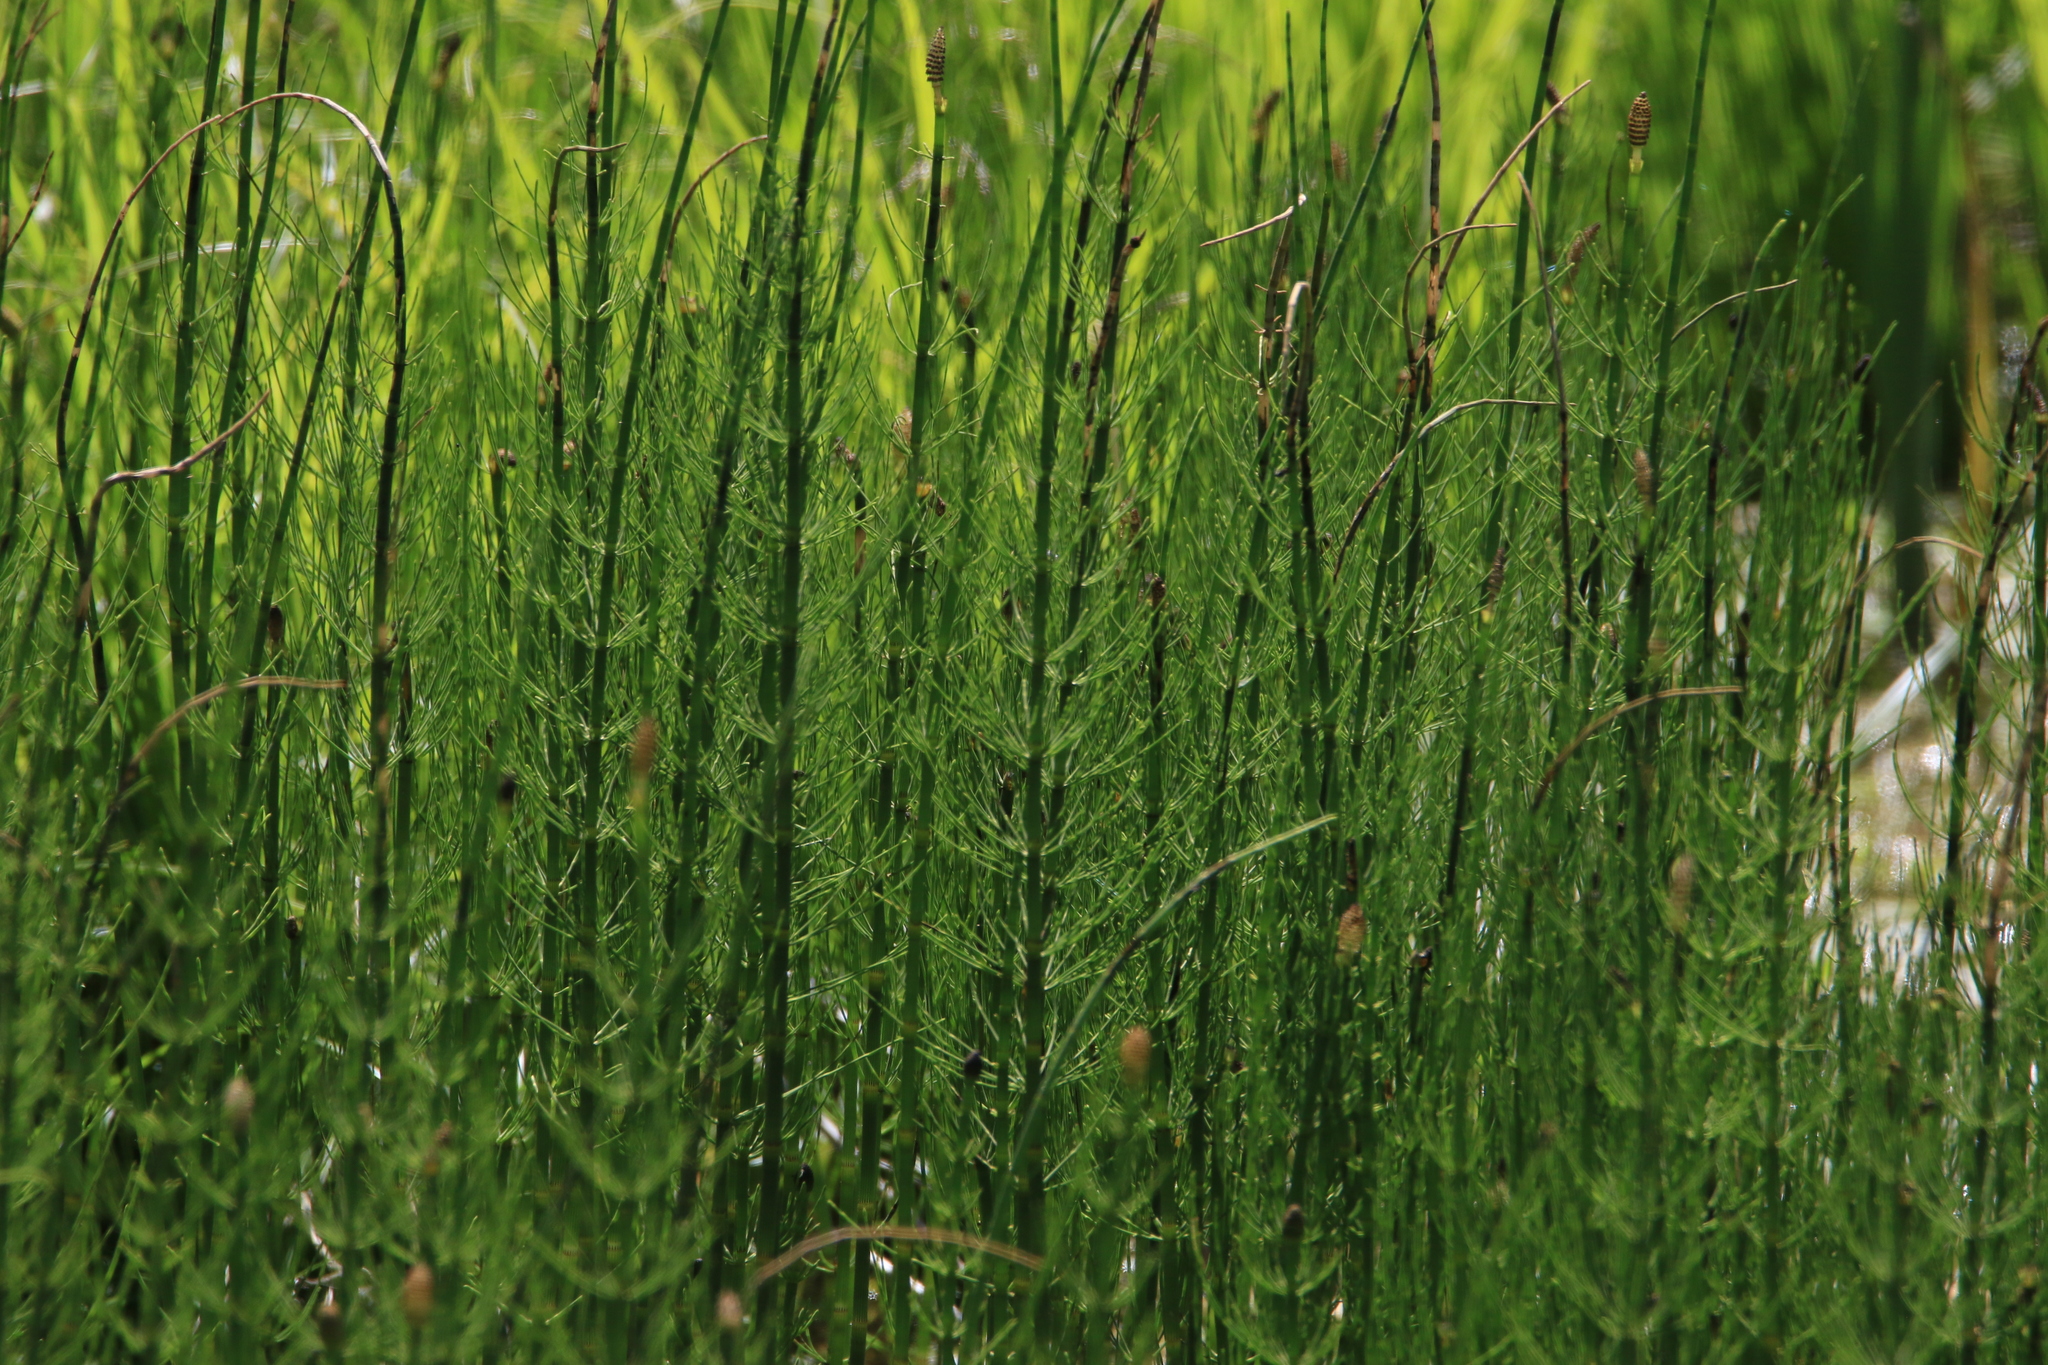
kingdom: Plantae
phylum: Tracheophyta
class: Polypodiopsida
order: Equisetales
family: Equisetaceae
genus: Equisetum
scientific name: Equisetum fluviatile
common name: Water horsetail
